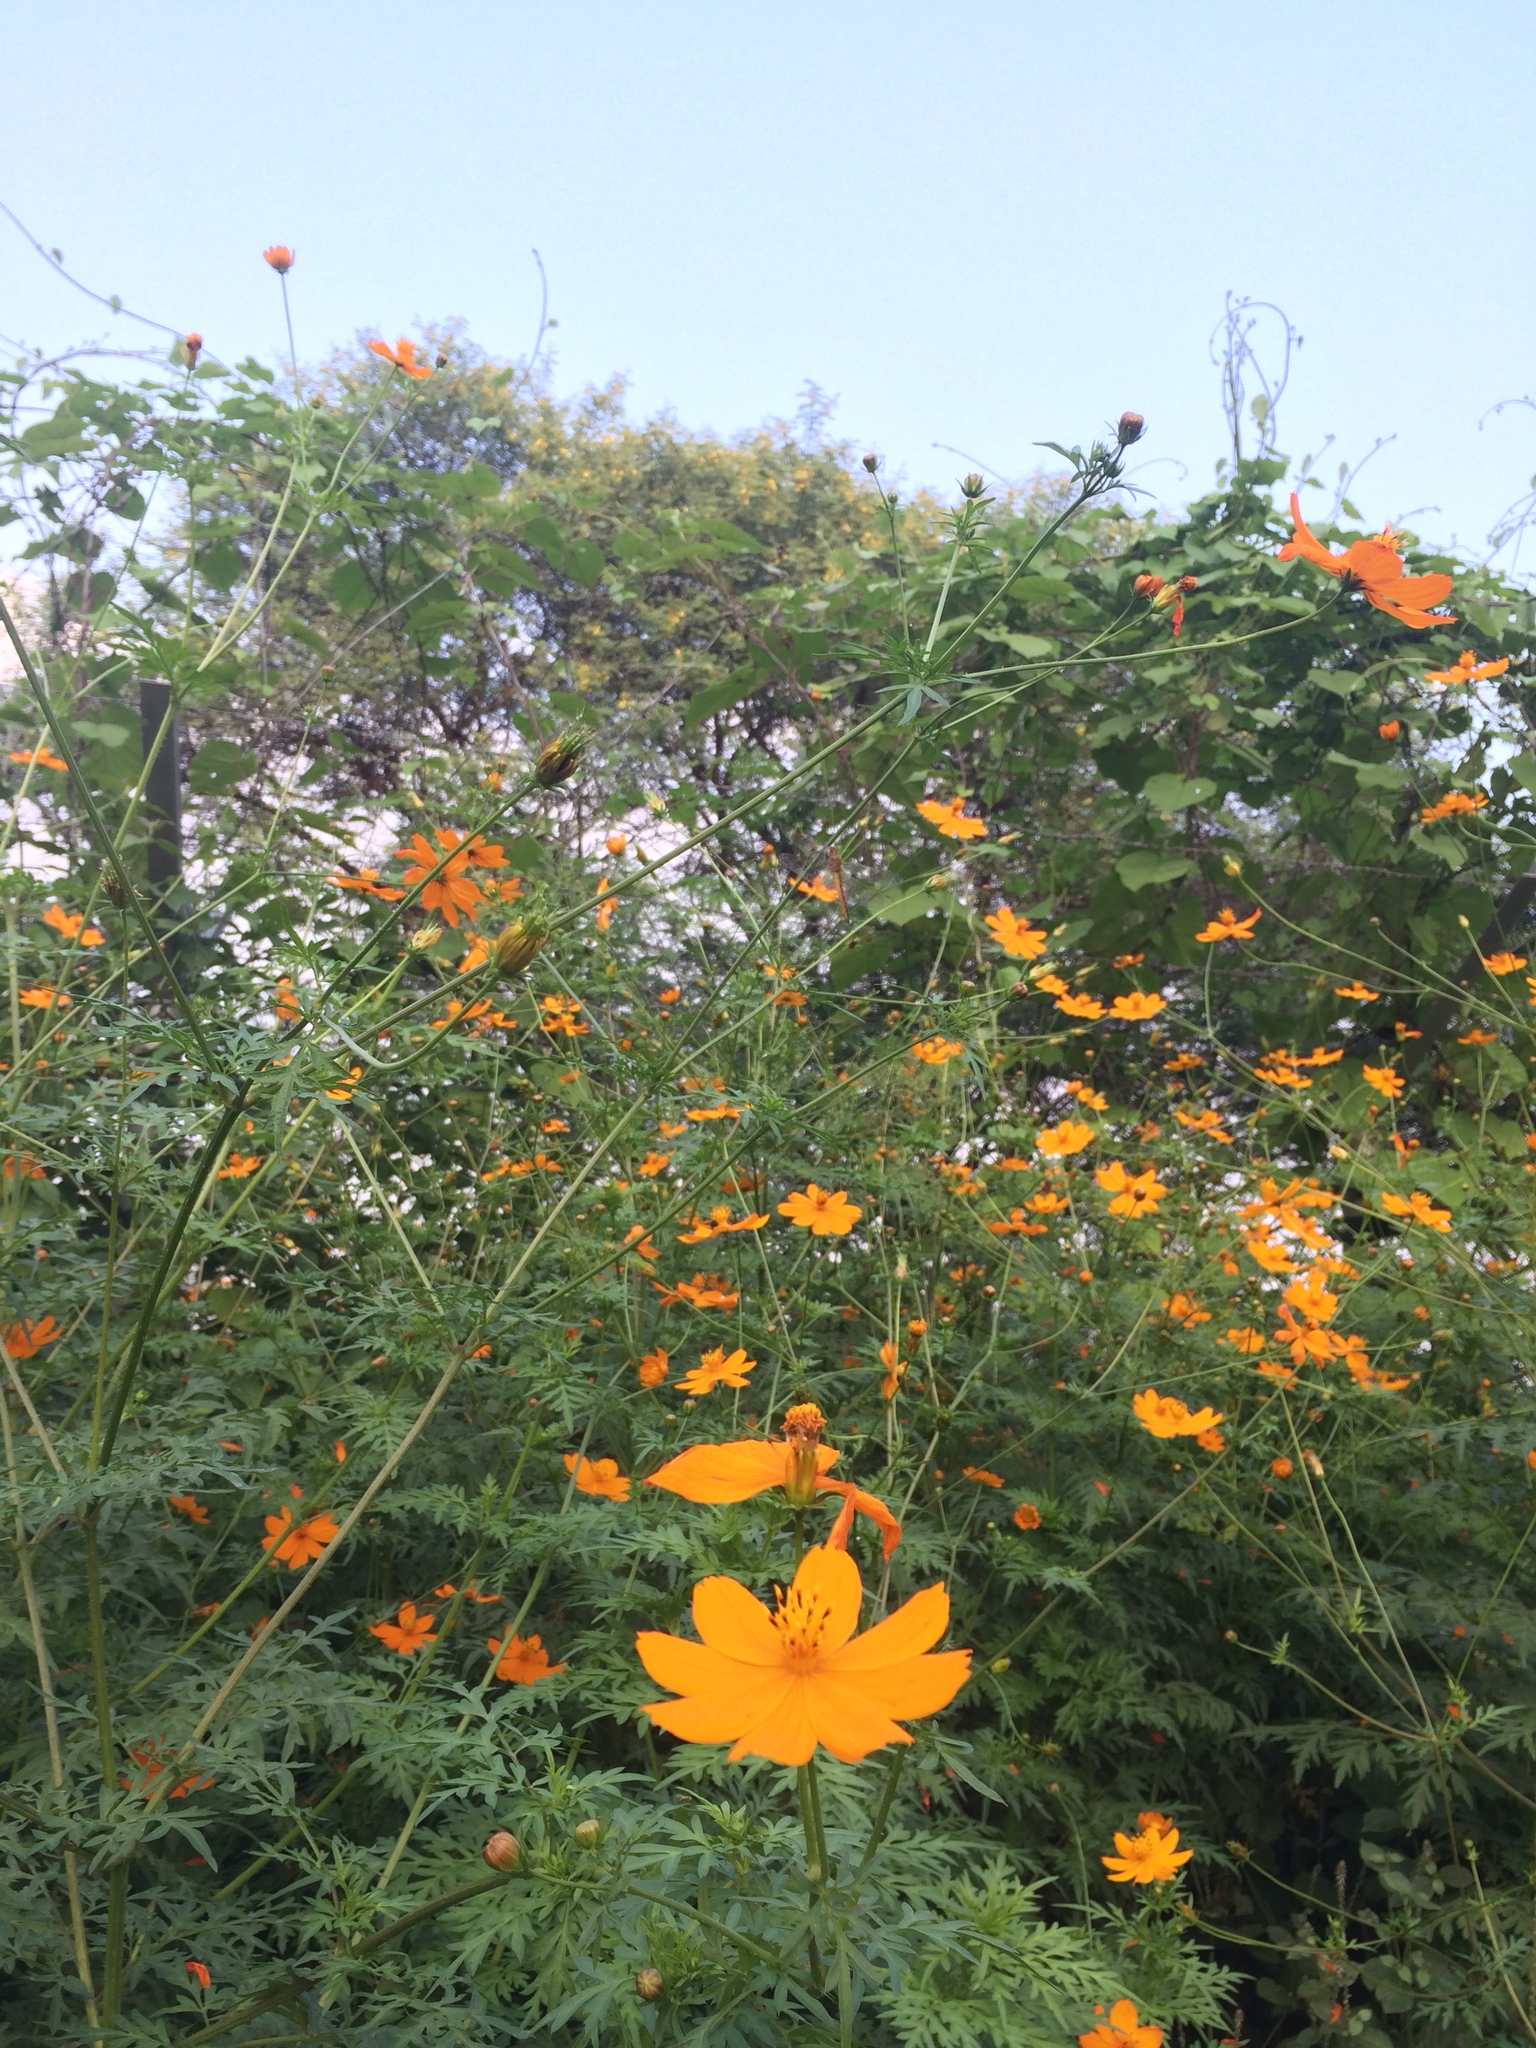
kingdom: Plantae
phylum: Tracheophyta
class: Magnoliopsida
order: Asterales
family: Asteraceae
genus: Cosmos
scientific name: Cosmos sulphureus
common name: Sulphur cosmos
